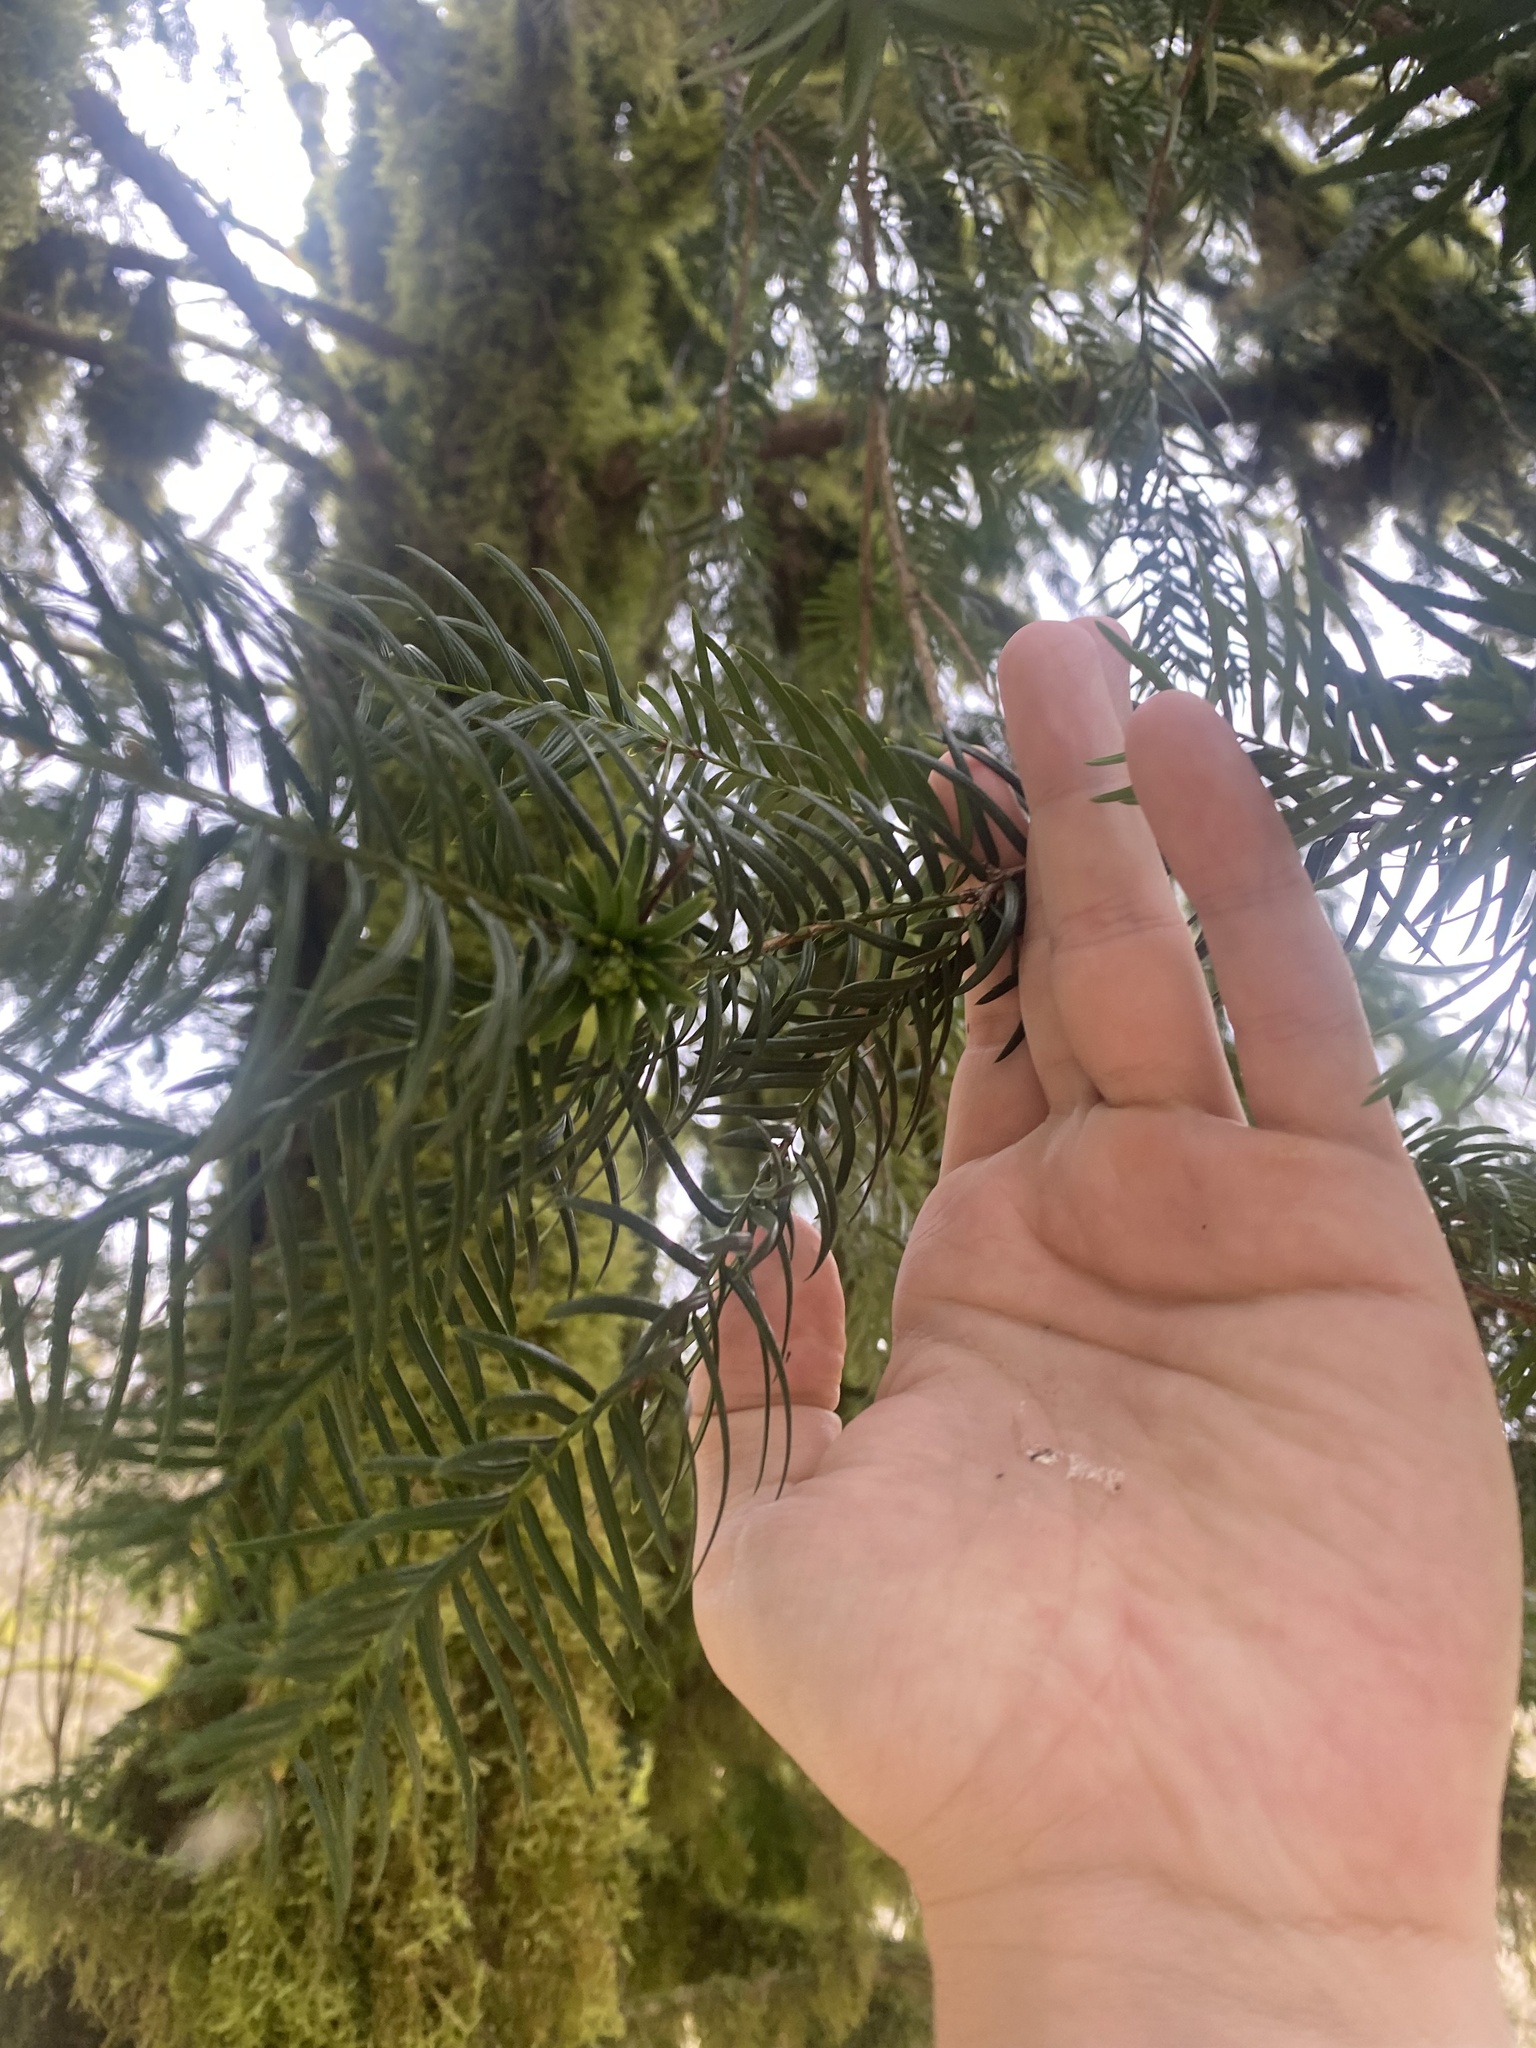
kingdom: Plantae
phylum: Tracheophyta
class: Pinopsida
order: Pinales
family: Taxaceae
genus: Taxus
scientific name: Taxus baccata
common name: Yew
